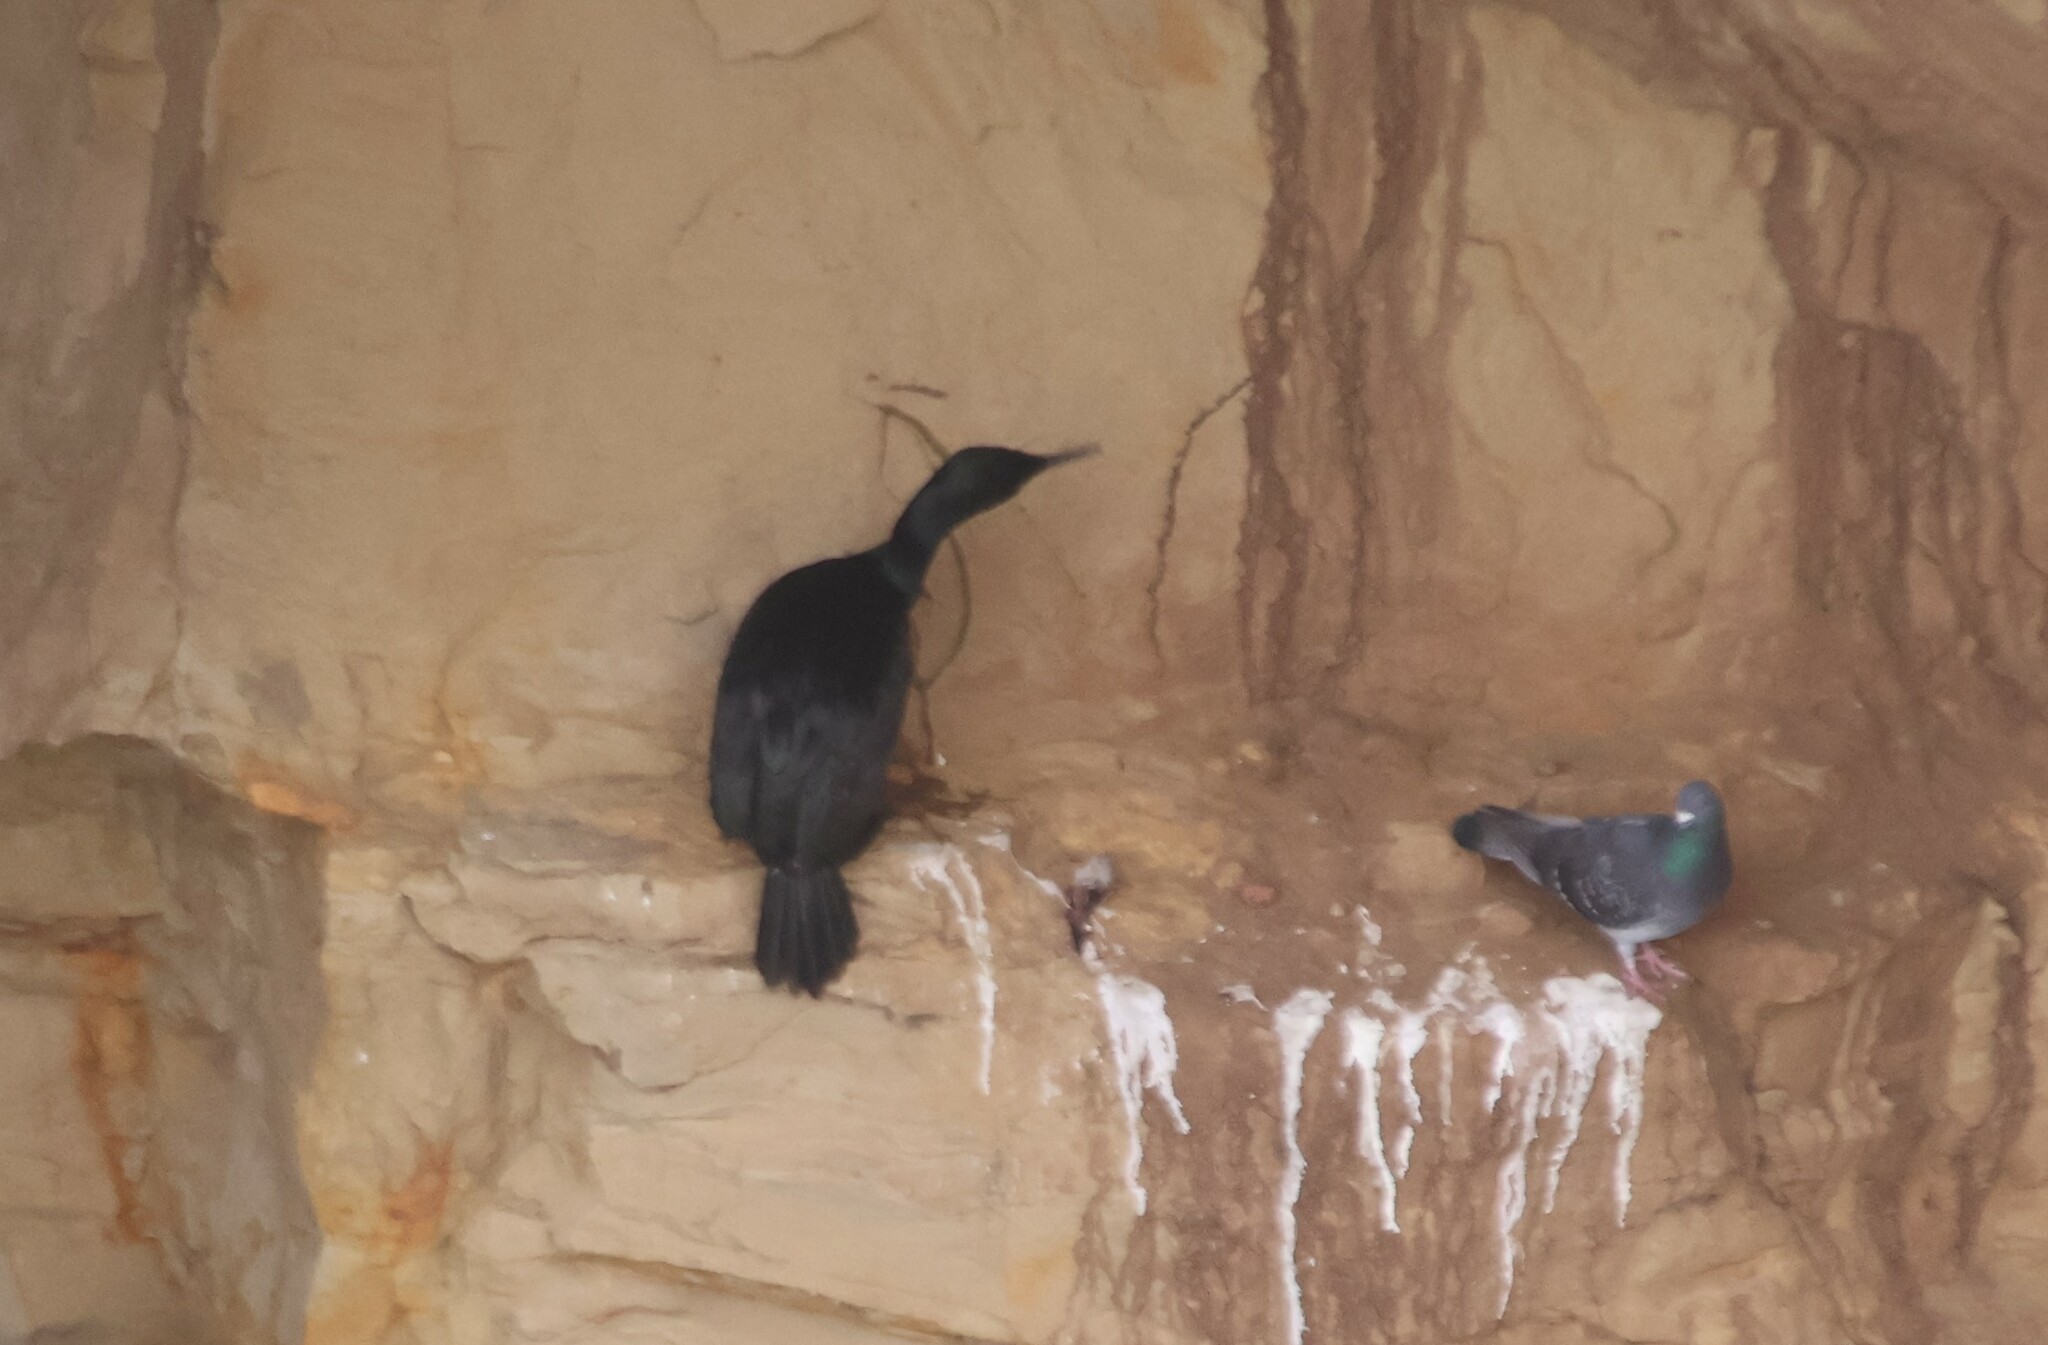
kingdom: Animalia
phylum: Chordata
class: Aves
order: Suliformes
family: Phalacrocoracidae
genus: Phalacrocorax
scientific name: Phalacrocorax pelagicus
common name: Pelagic cormorant
